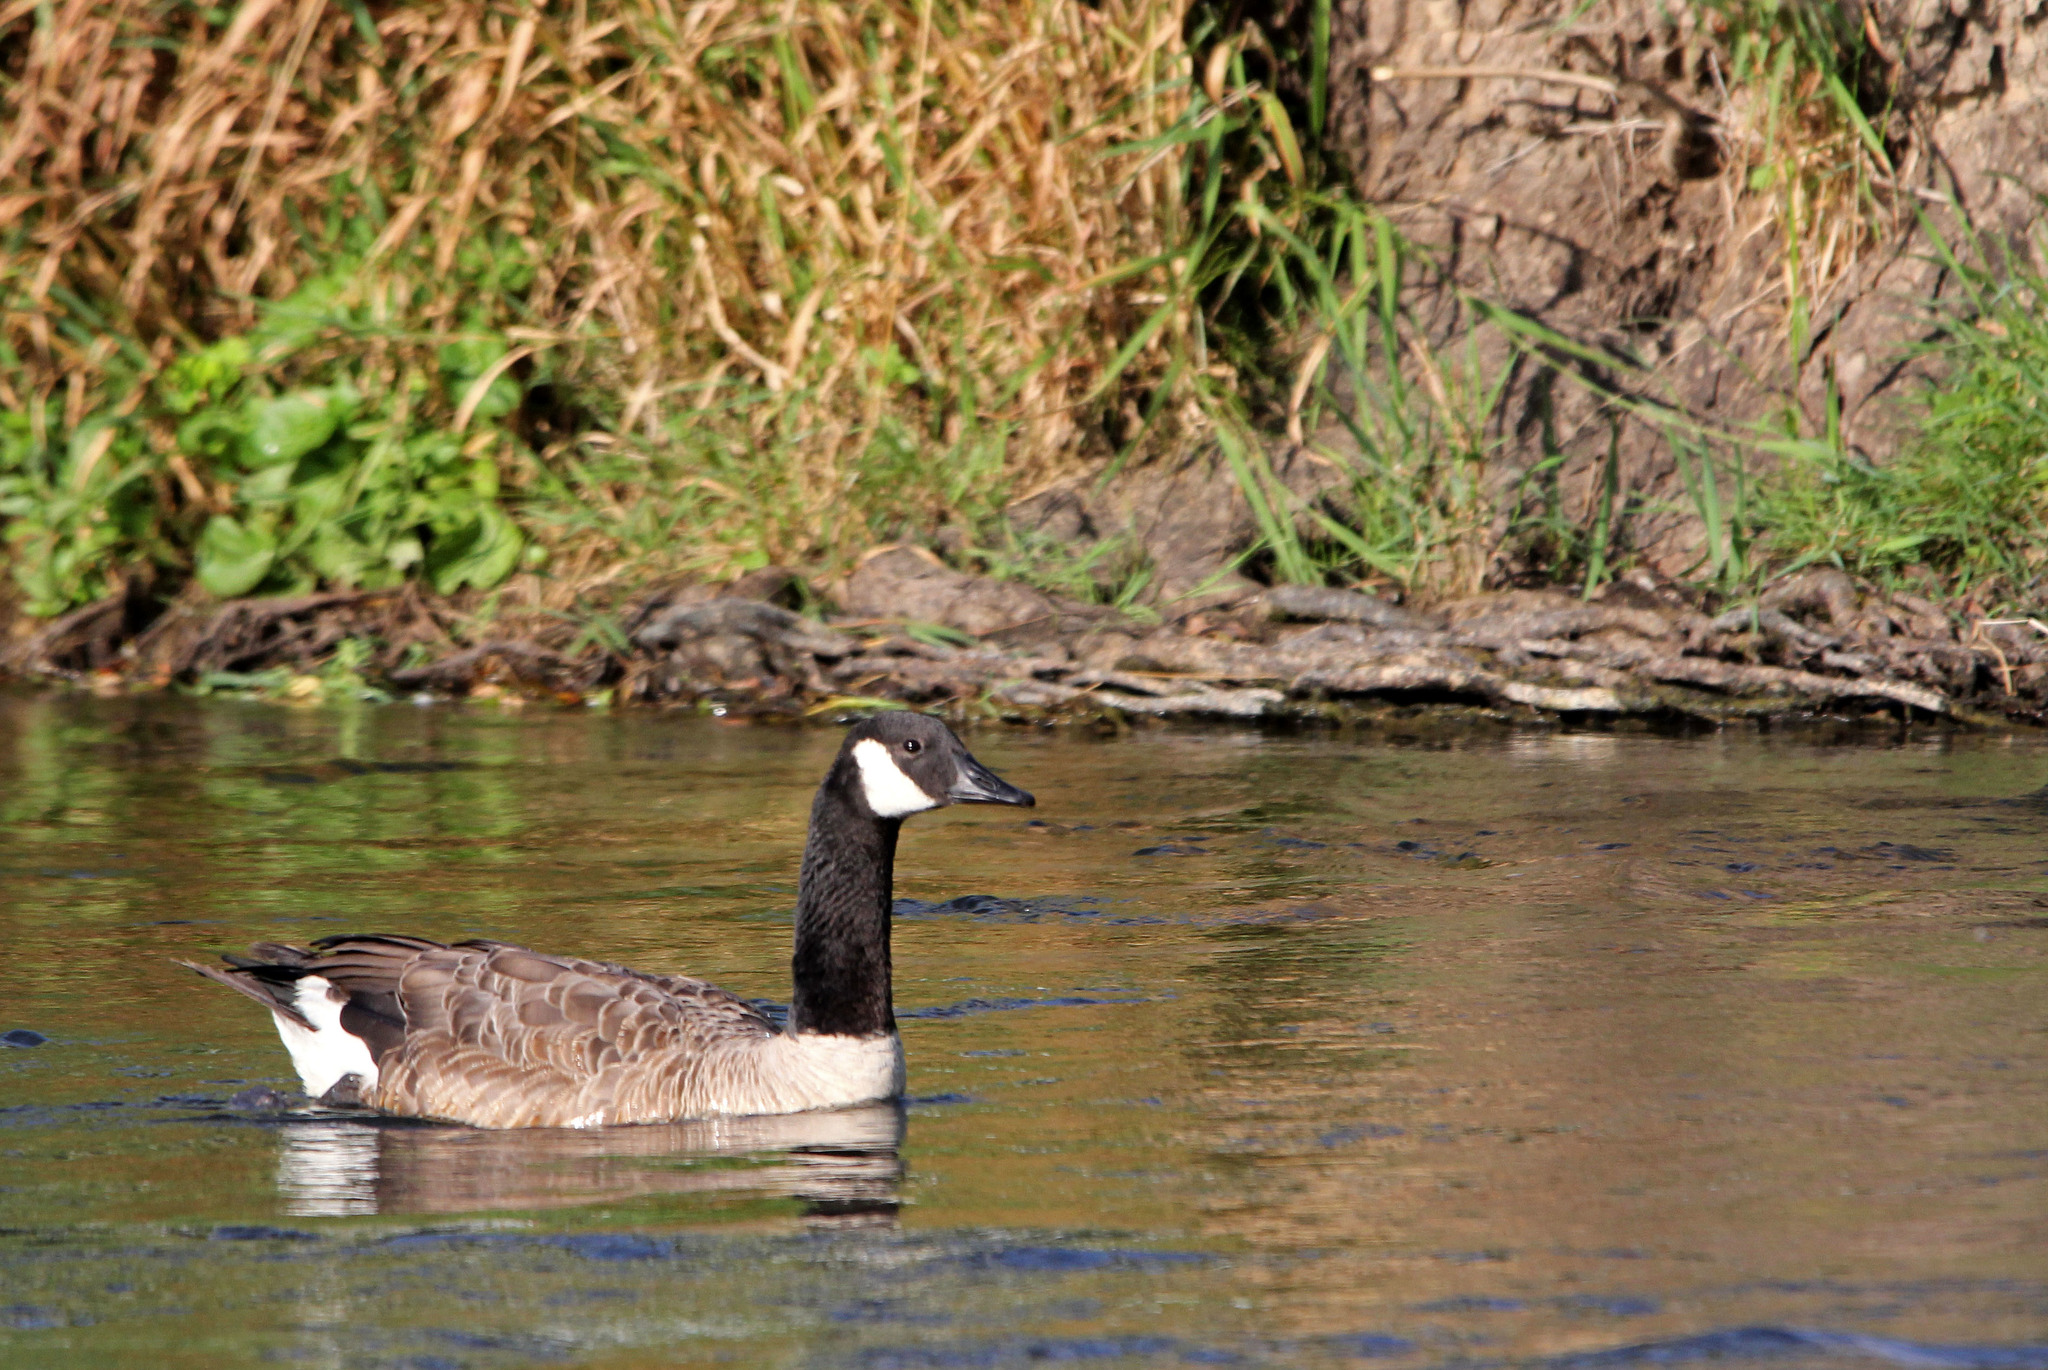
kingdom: Animalia
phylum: Chordata
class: Aves
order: Anseriformes
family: Anatidae
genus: Branta
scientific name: Branta canadensis
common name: Canada goose
